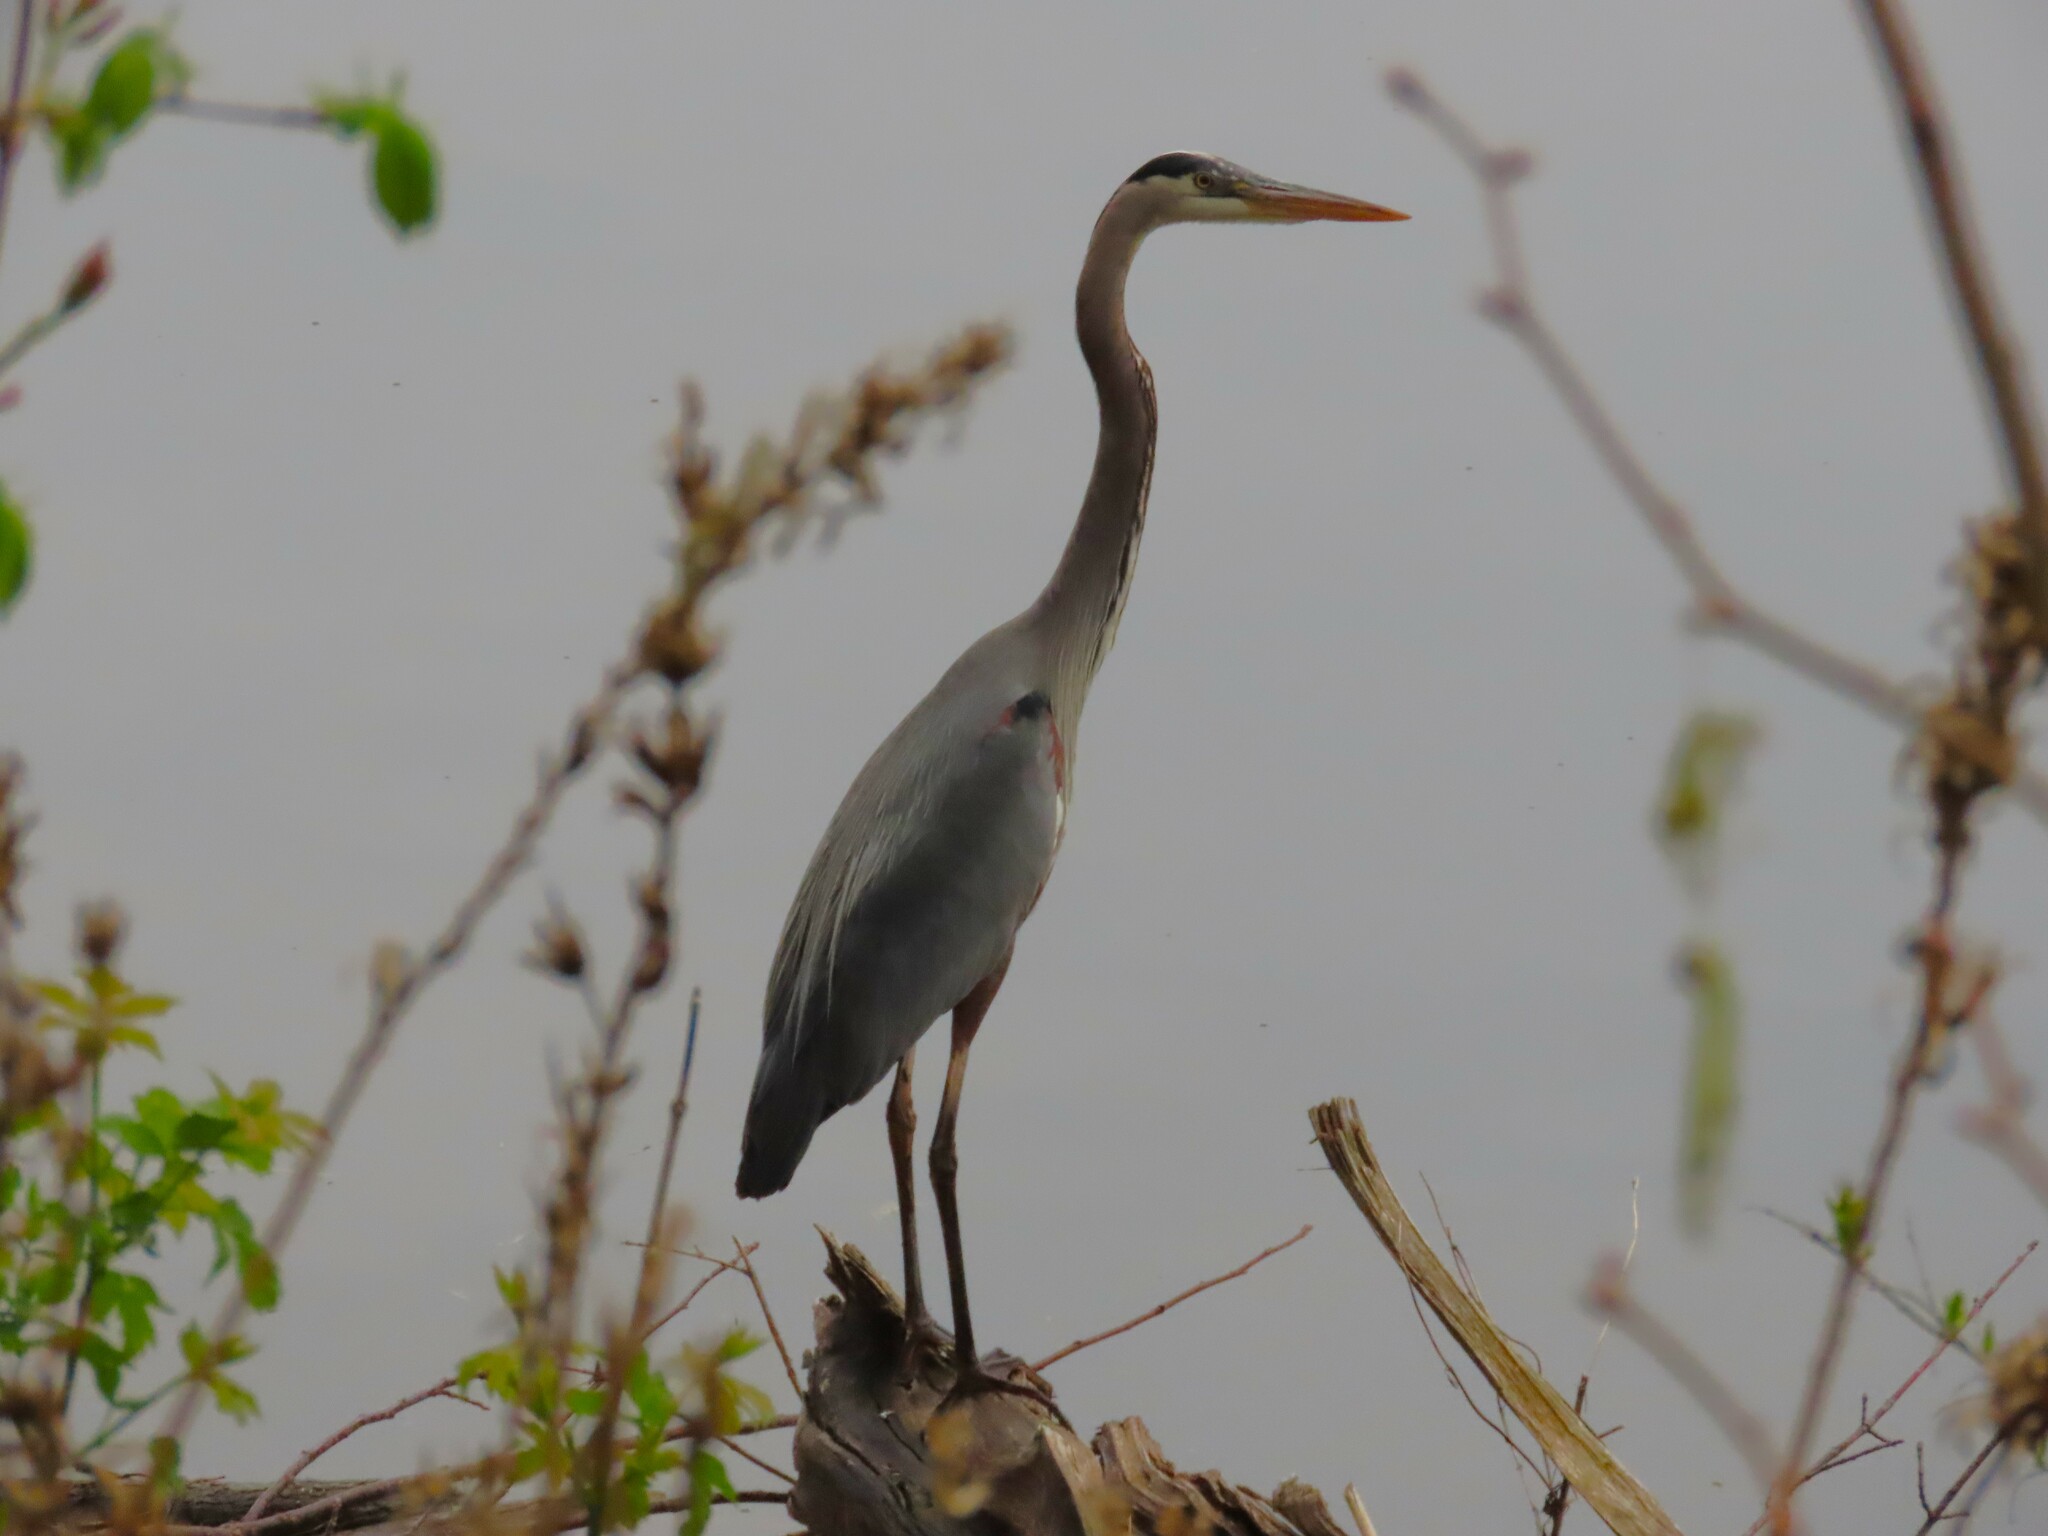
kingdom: Animalia
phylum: Chordata
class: Aves
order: Pelecaniformes
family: Ardeidae
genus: Ardea
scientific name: Ardea herodias
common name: Great blue heron
